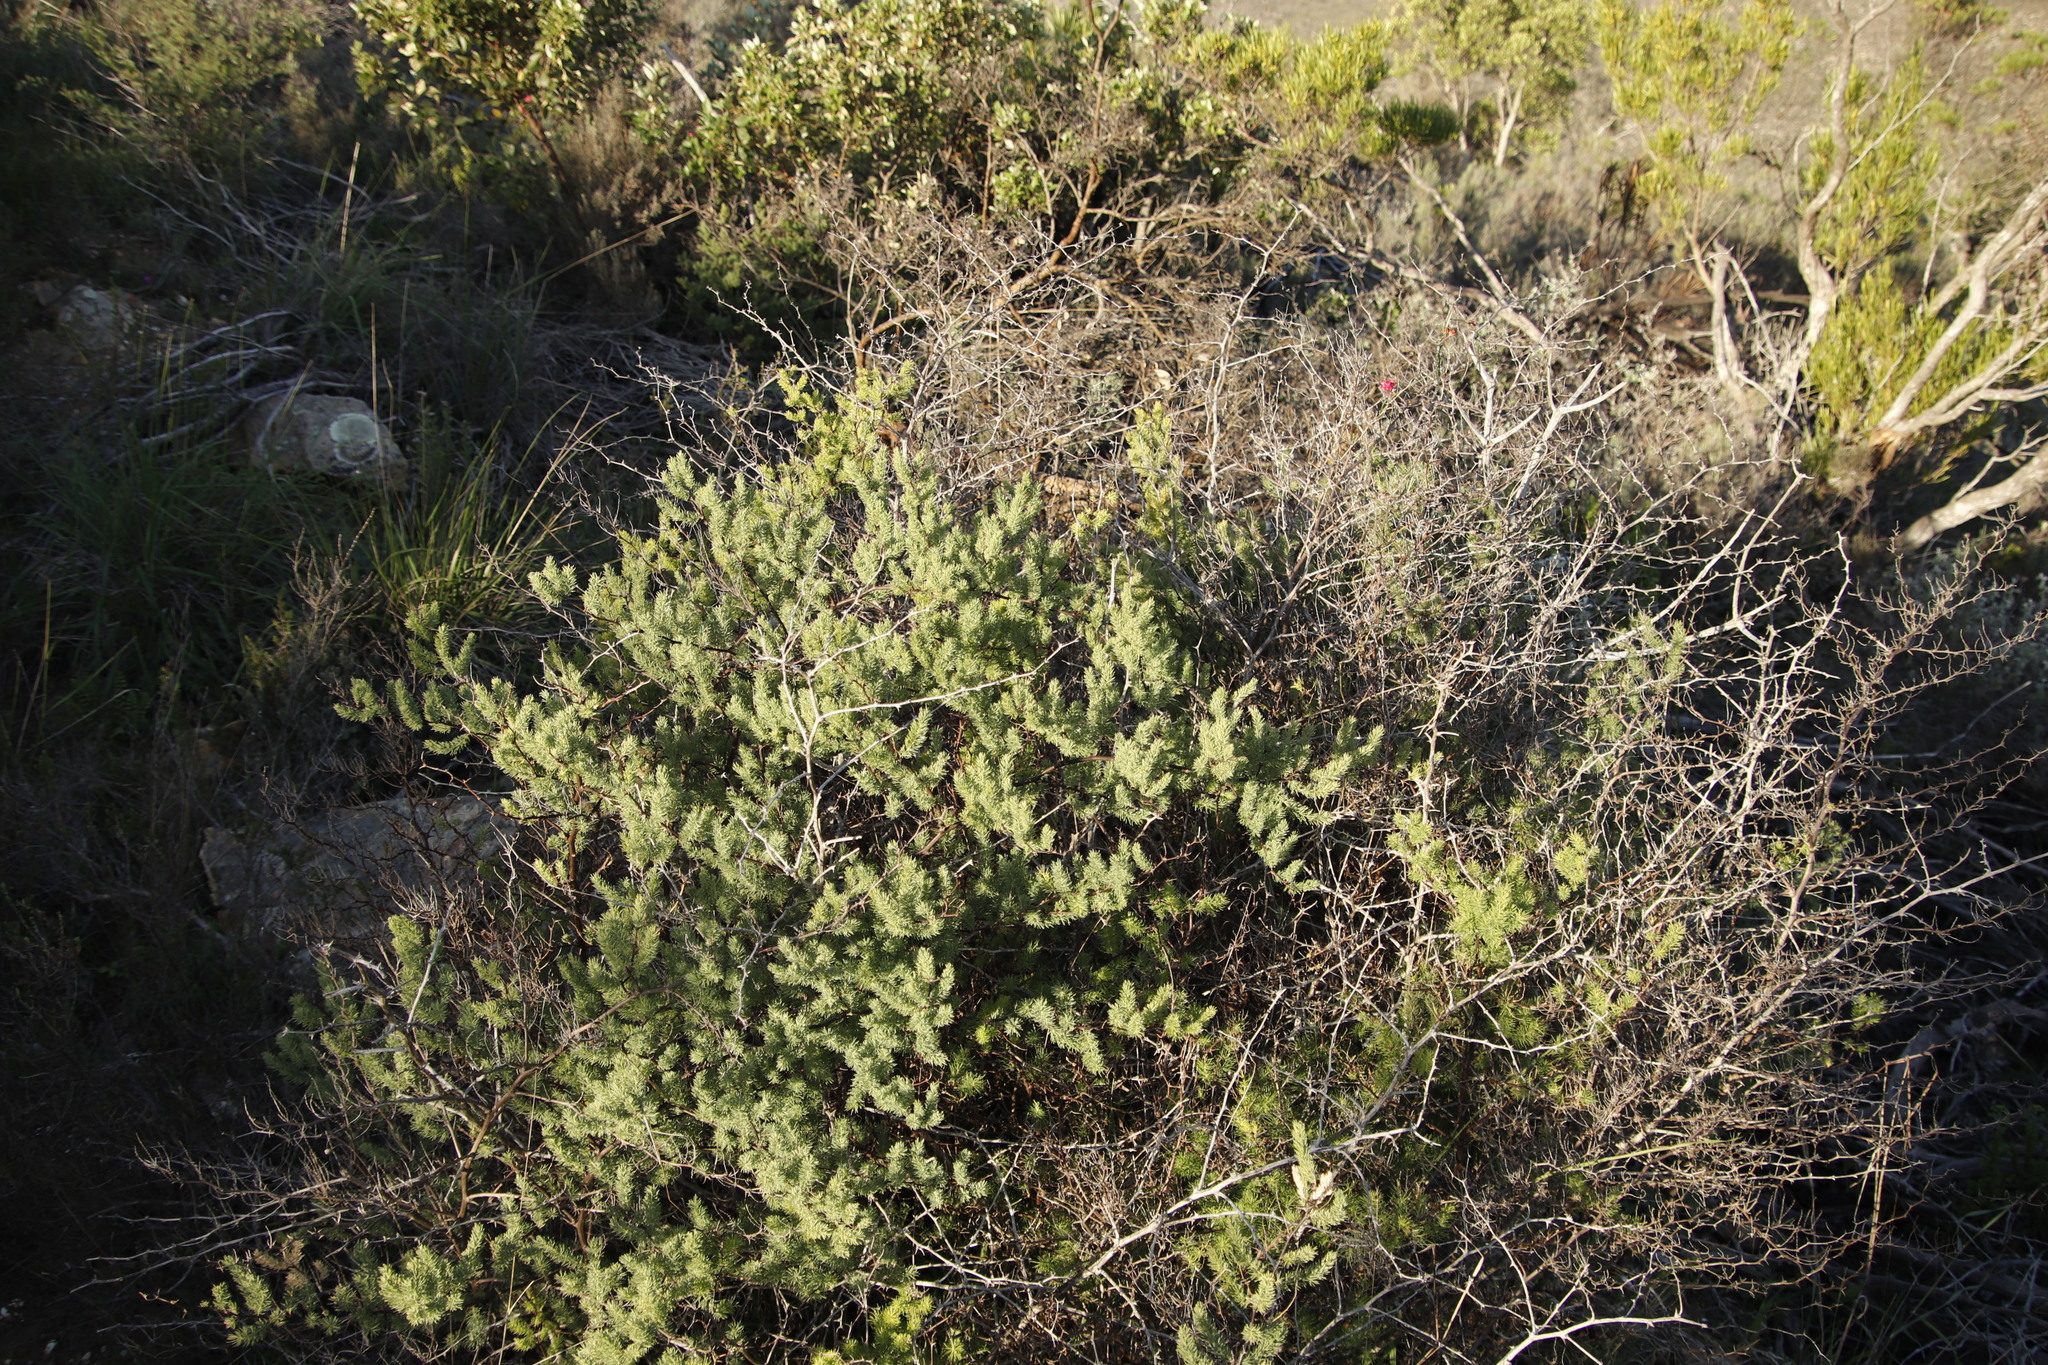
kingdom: Plantae
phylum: Tracheophyta
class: Liliopsida
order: Asparagales
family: Asparagaceae
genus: Asparagus
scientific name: Asparagus rubicundus
